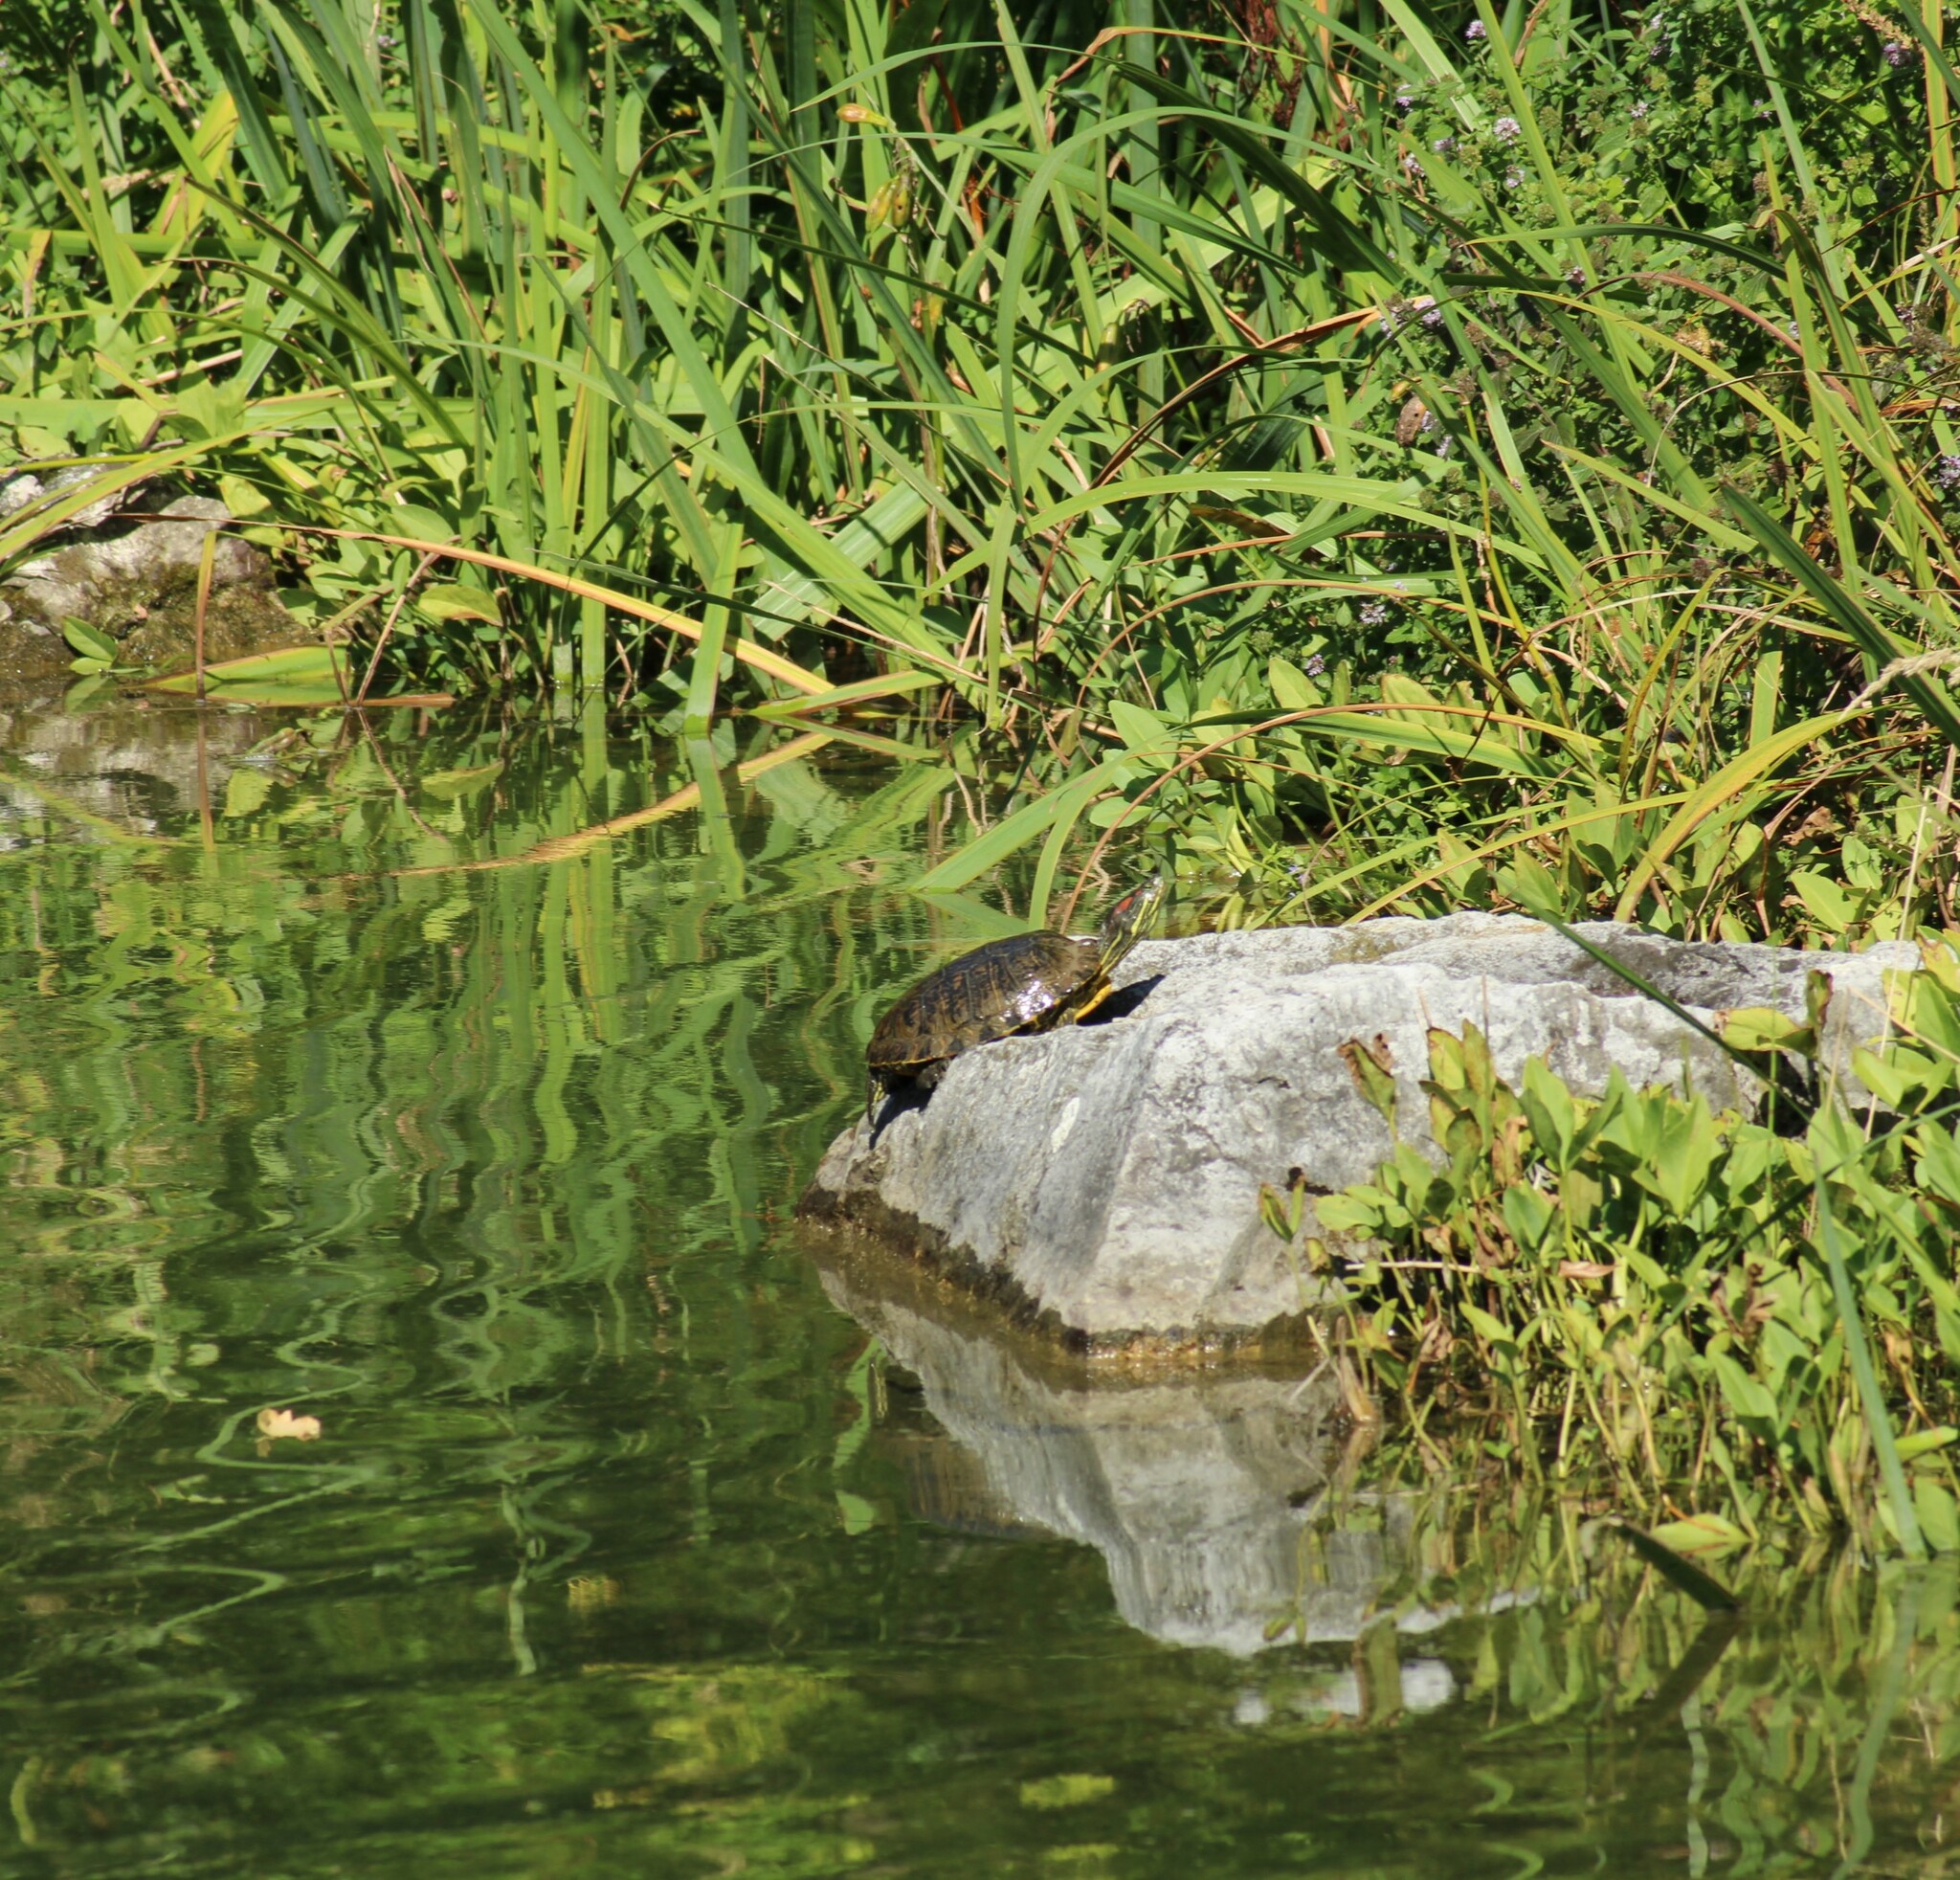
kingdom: Animalia
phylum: Chordata
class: Testudines
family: Emydidae
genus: Trachemys
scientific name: Trachemys scripta
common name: Slider
